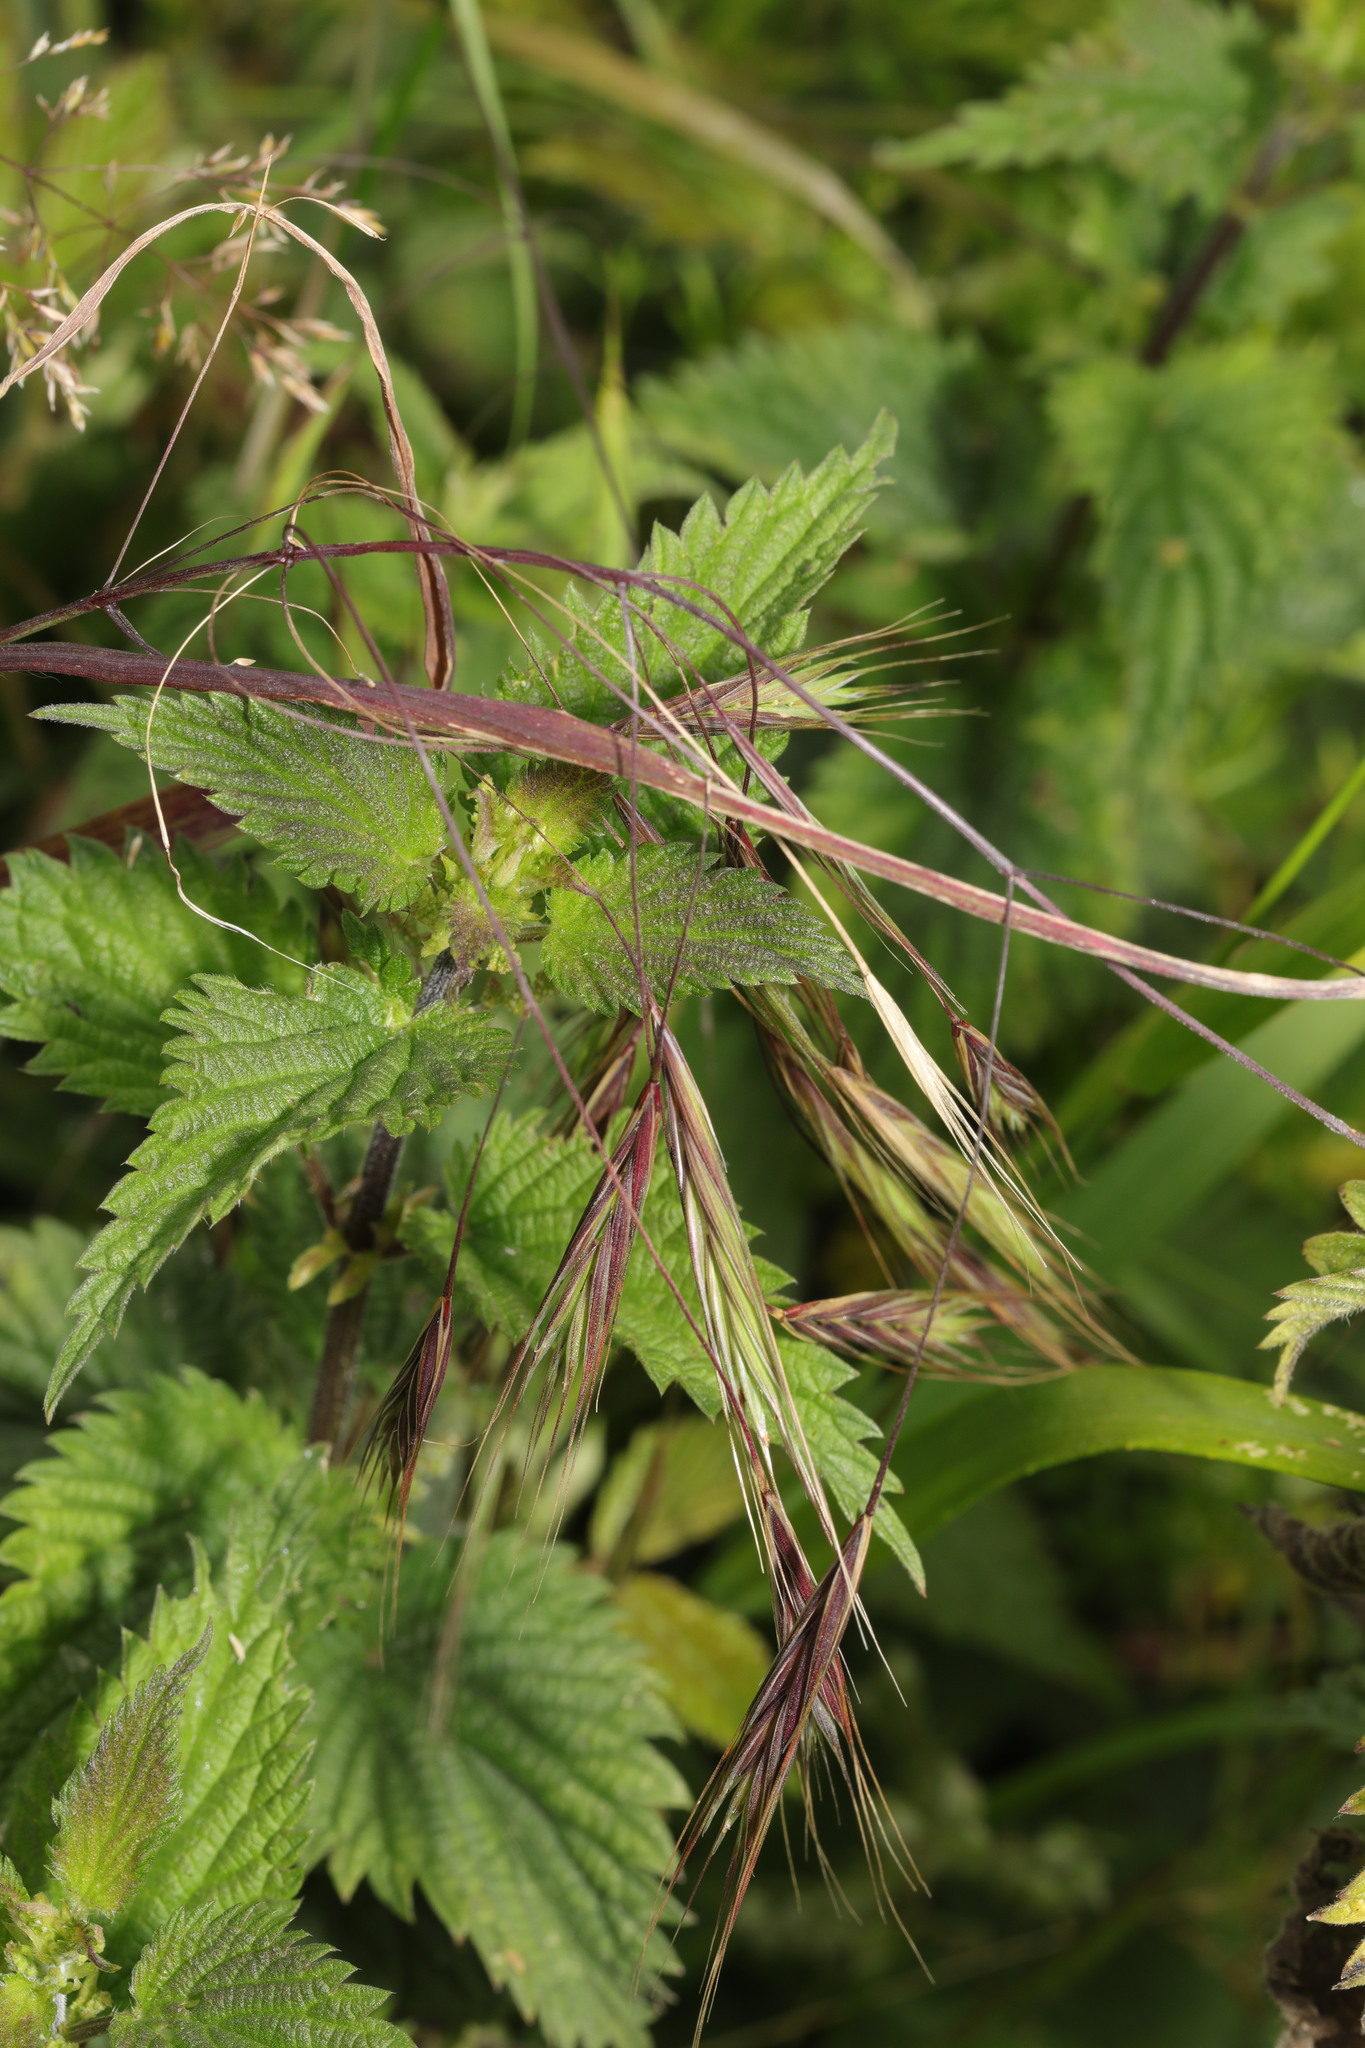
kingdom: Plantae
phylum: Tracheophyta
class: Liliopsida
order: Poales
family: Poaceae
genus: Bromus
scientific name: Bromus sterilis
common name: Poverty brome
